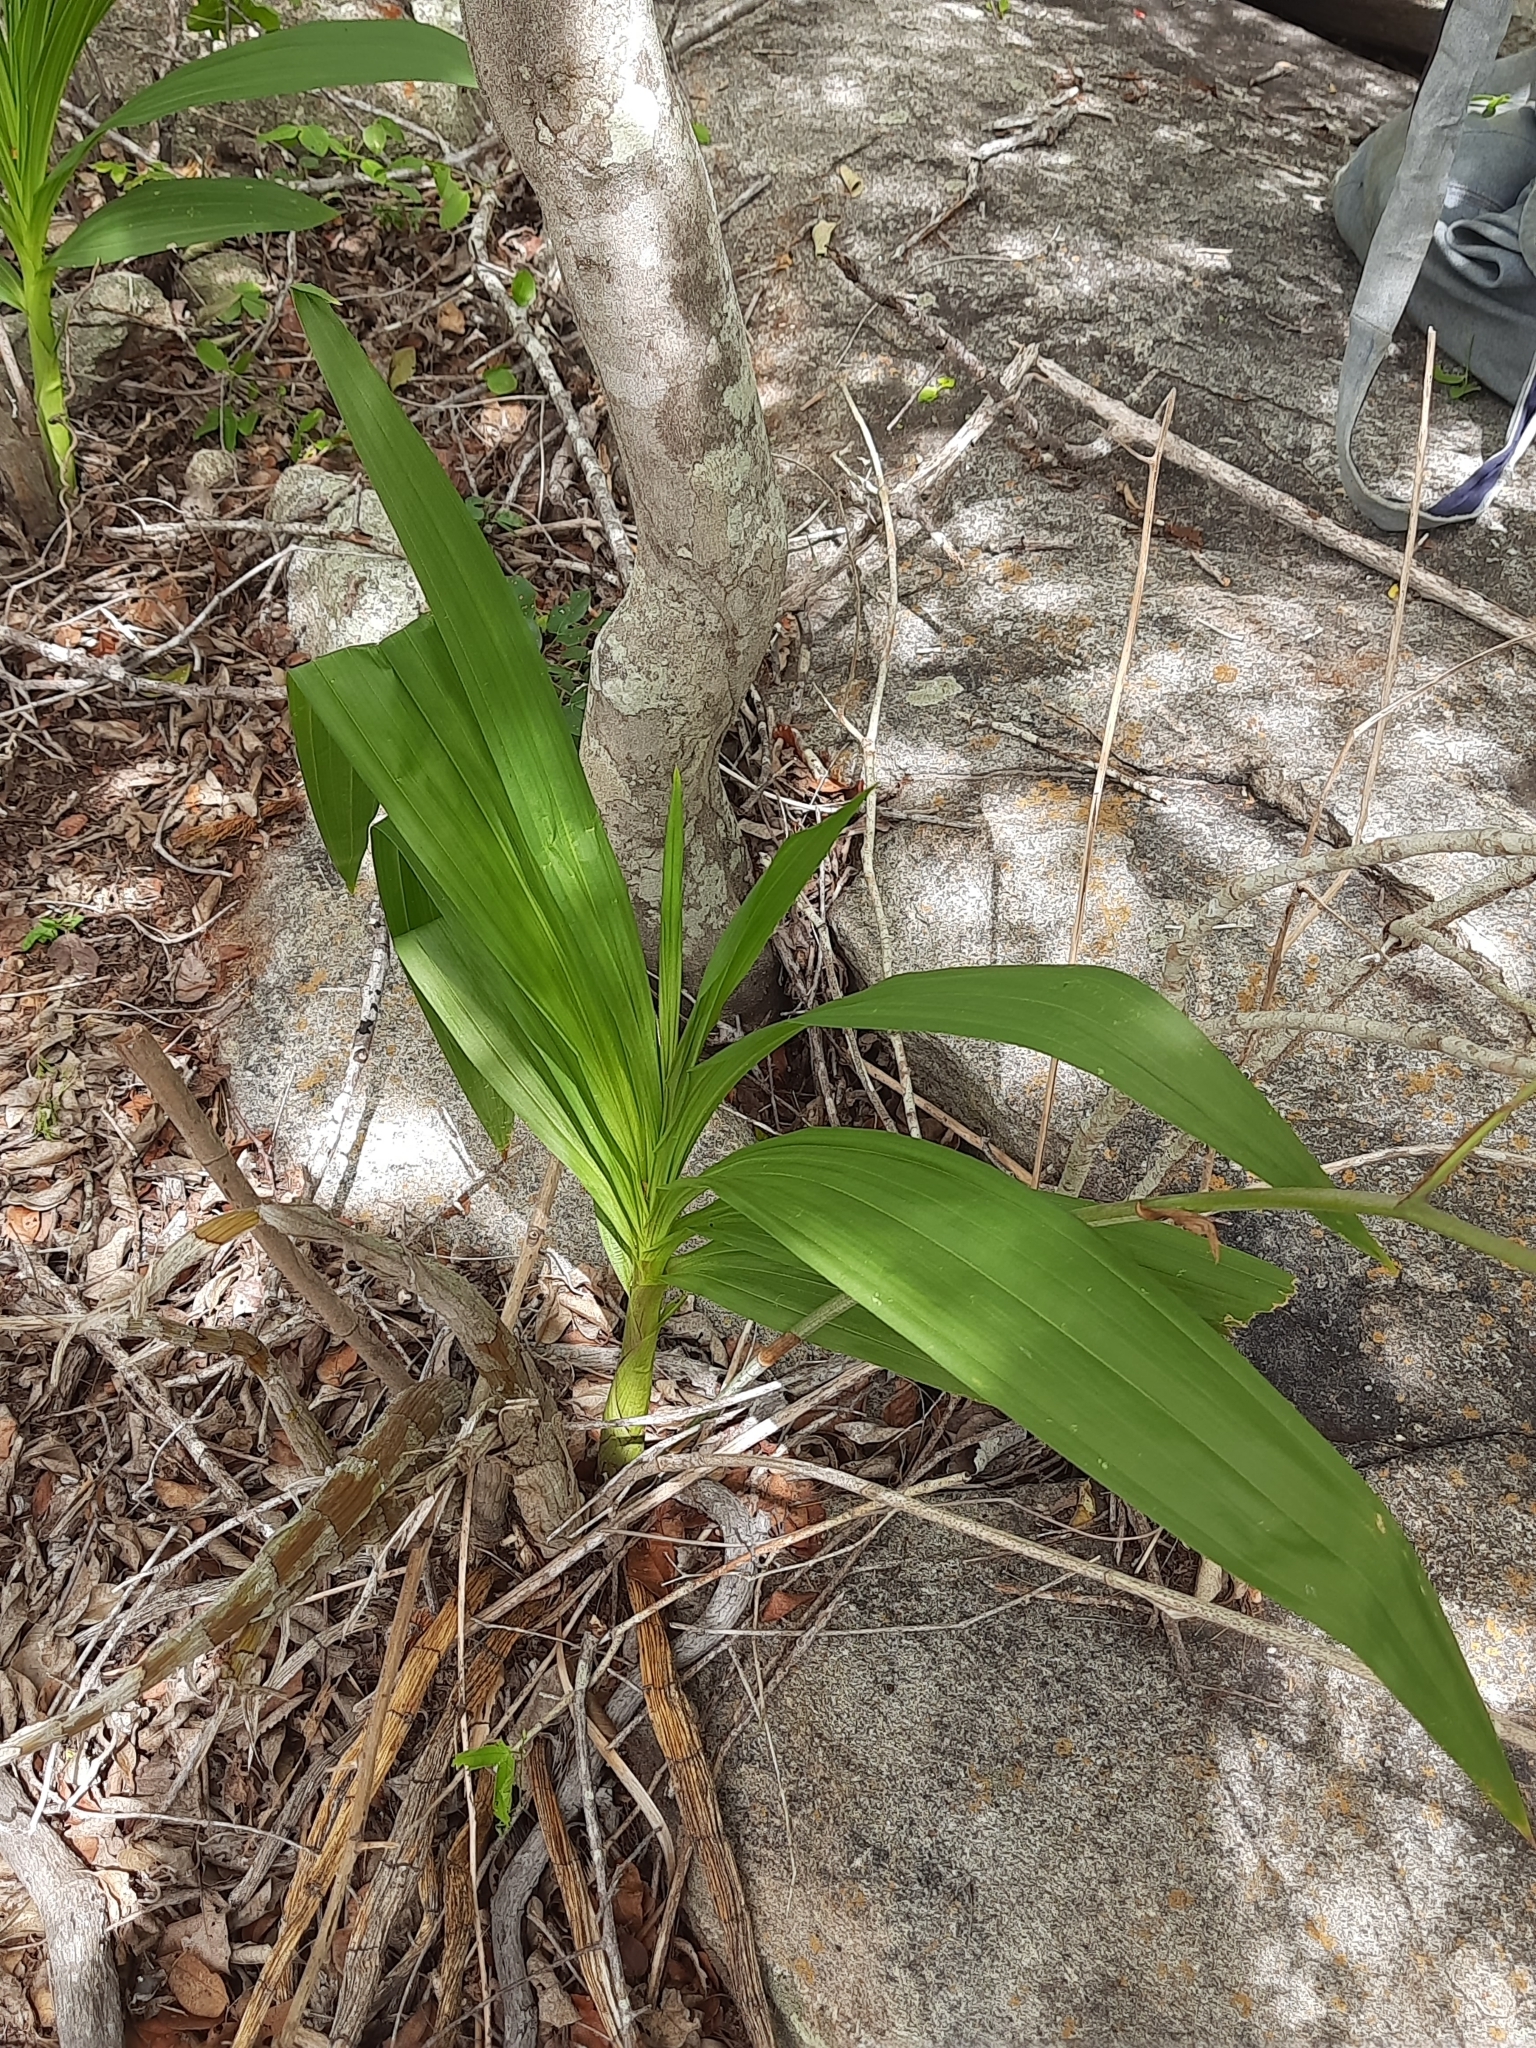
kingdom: Plantae
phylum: Tracheophyta
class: Liliopsida
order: Asparagales
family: Orchidaceae
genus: Cyrtopodium
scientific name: Cyrtopodium holstii
